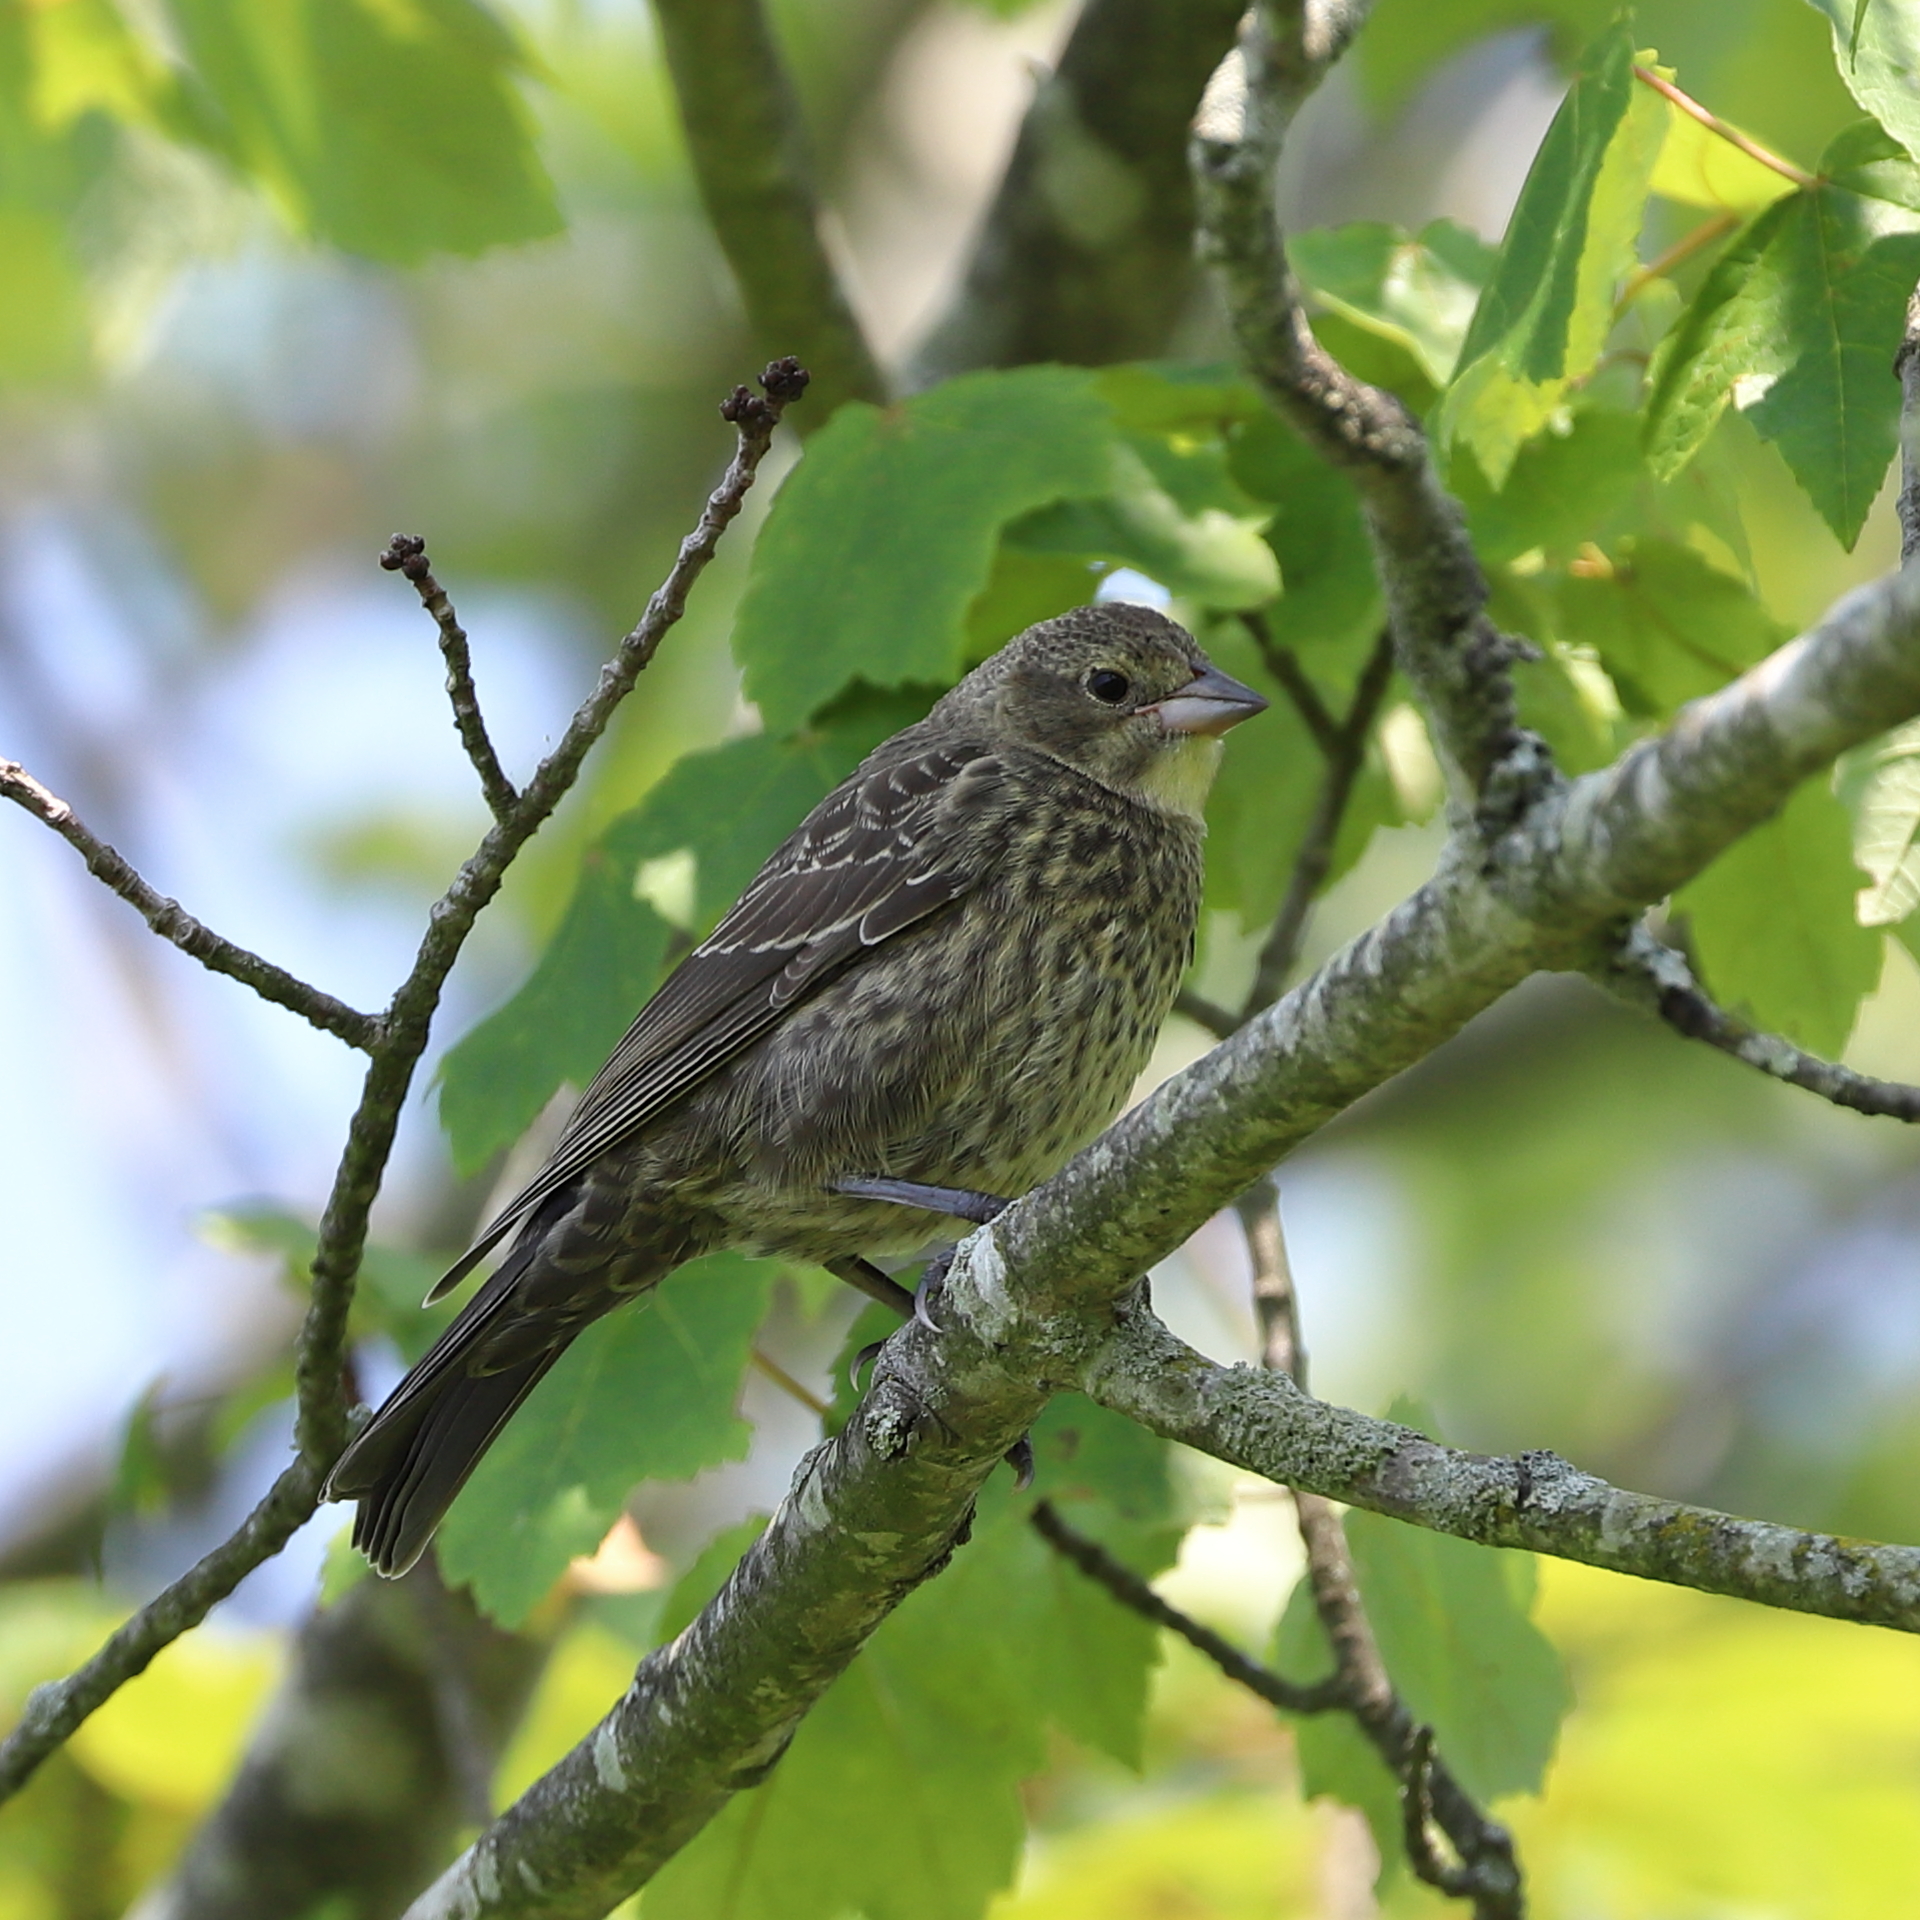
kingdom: Animalia
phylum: Chordata
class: Aves
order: Passeriformes
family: Icteridae
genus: Molothrus
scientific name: Molothrus ater
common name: Brown-headed cowbird
